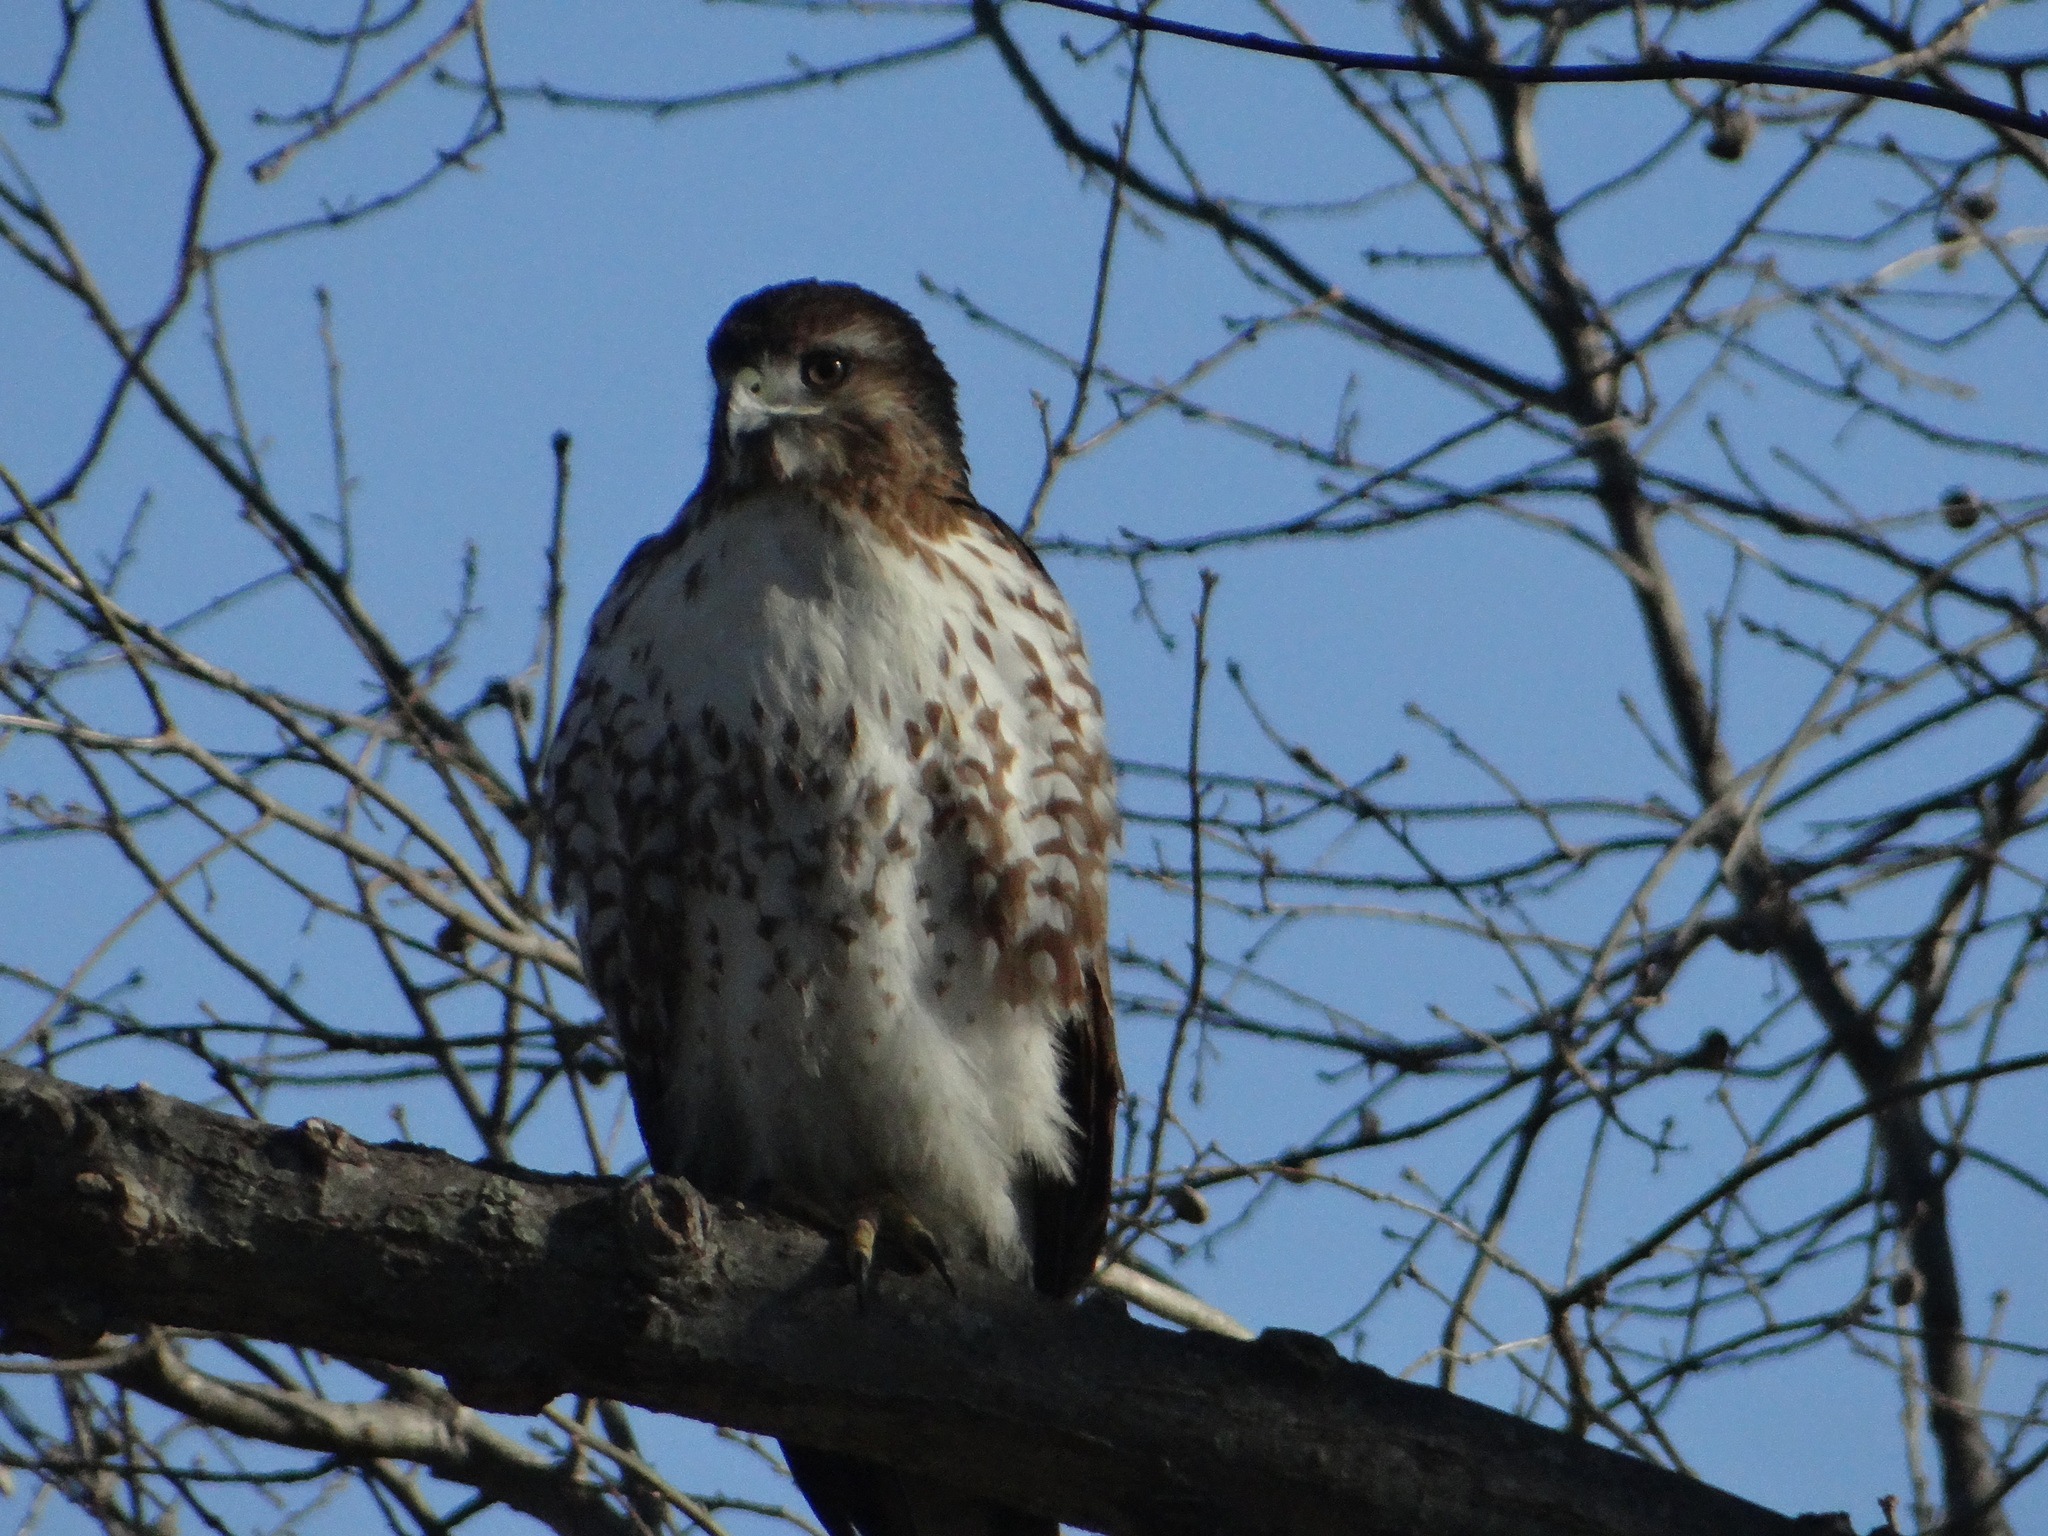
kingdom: Animalia
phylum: Chordata
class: Aves
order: Accipitriformes
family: Accipitridae
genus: Buteo
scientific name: Buteo jamaicensis
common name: Red-tailed hawk
